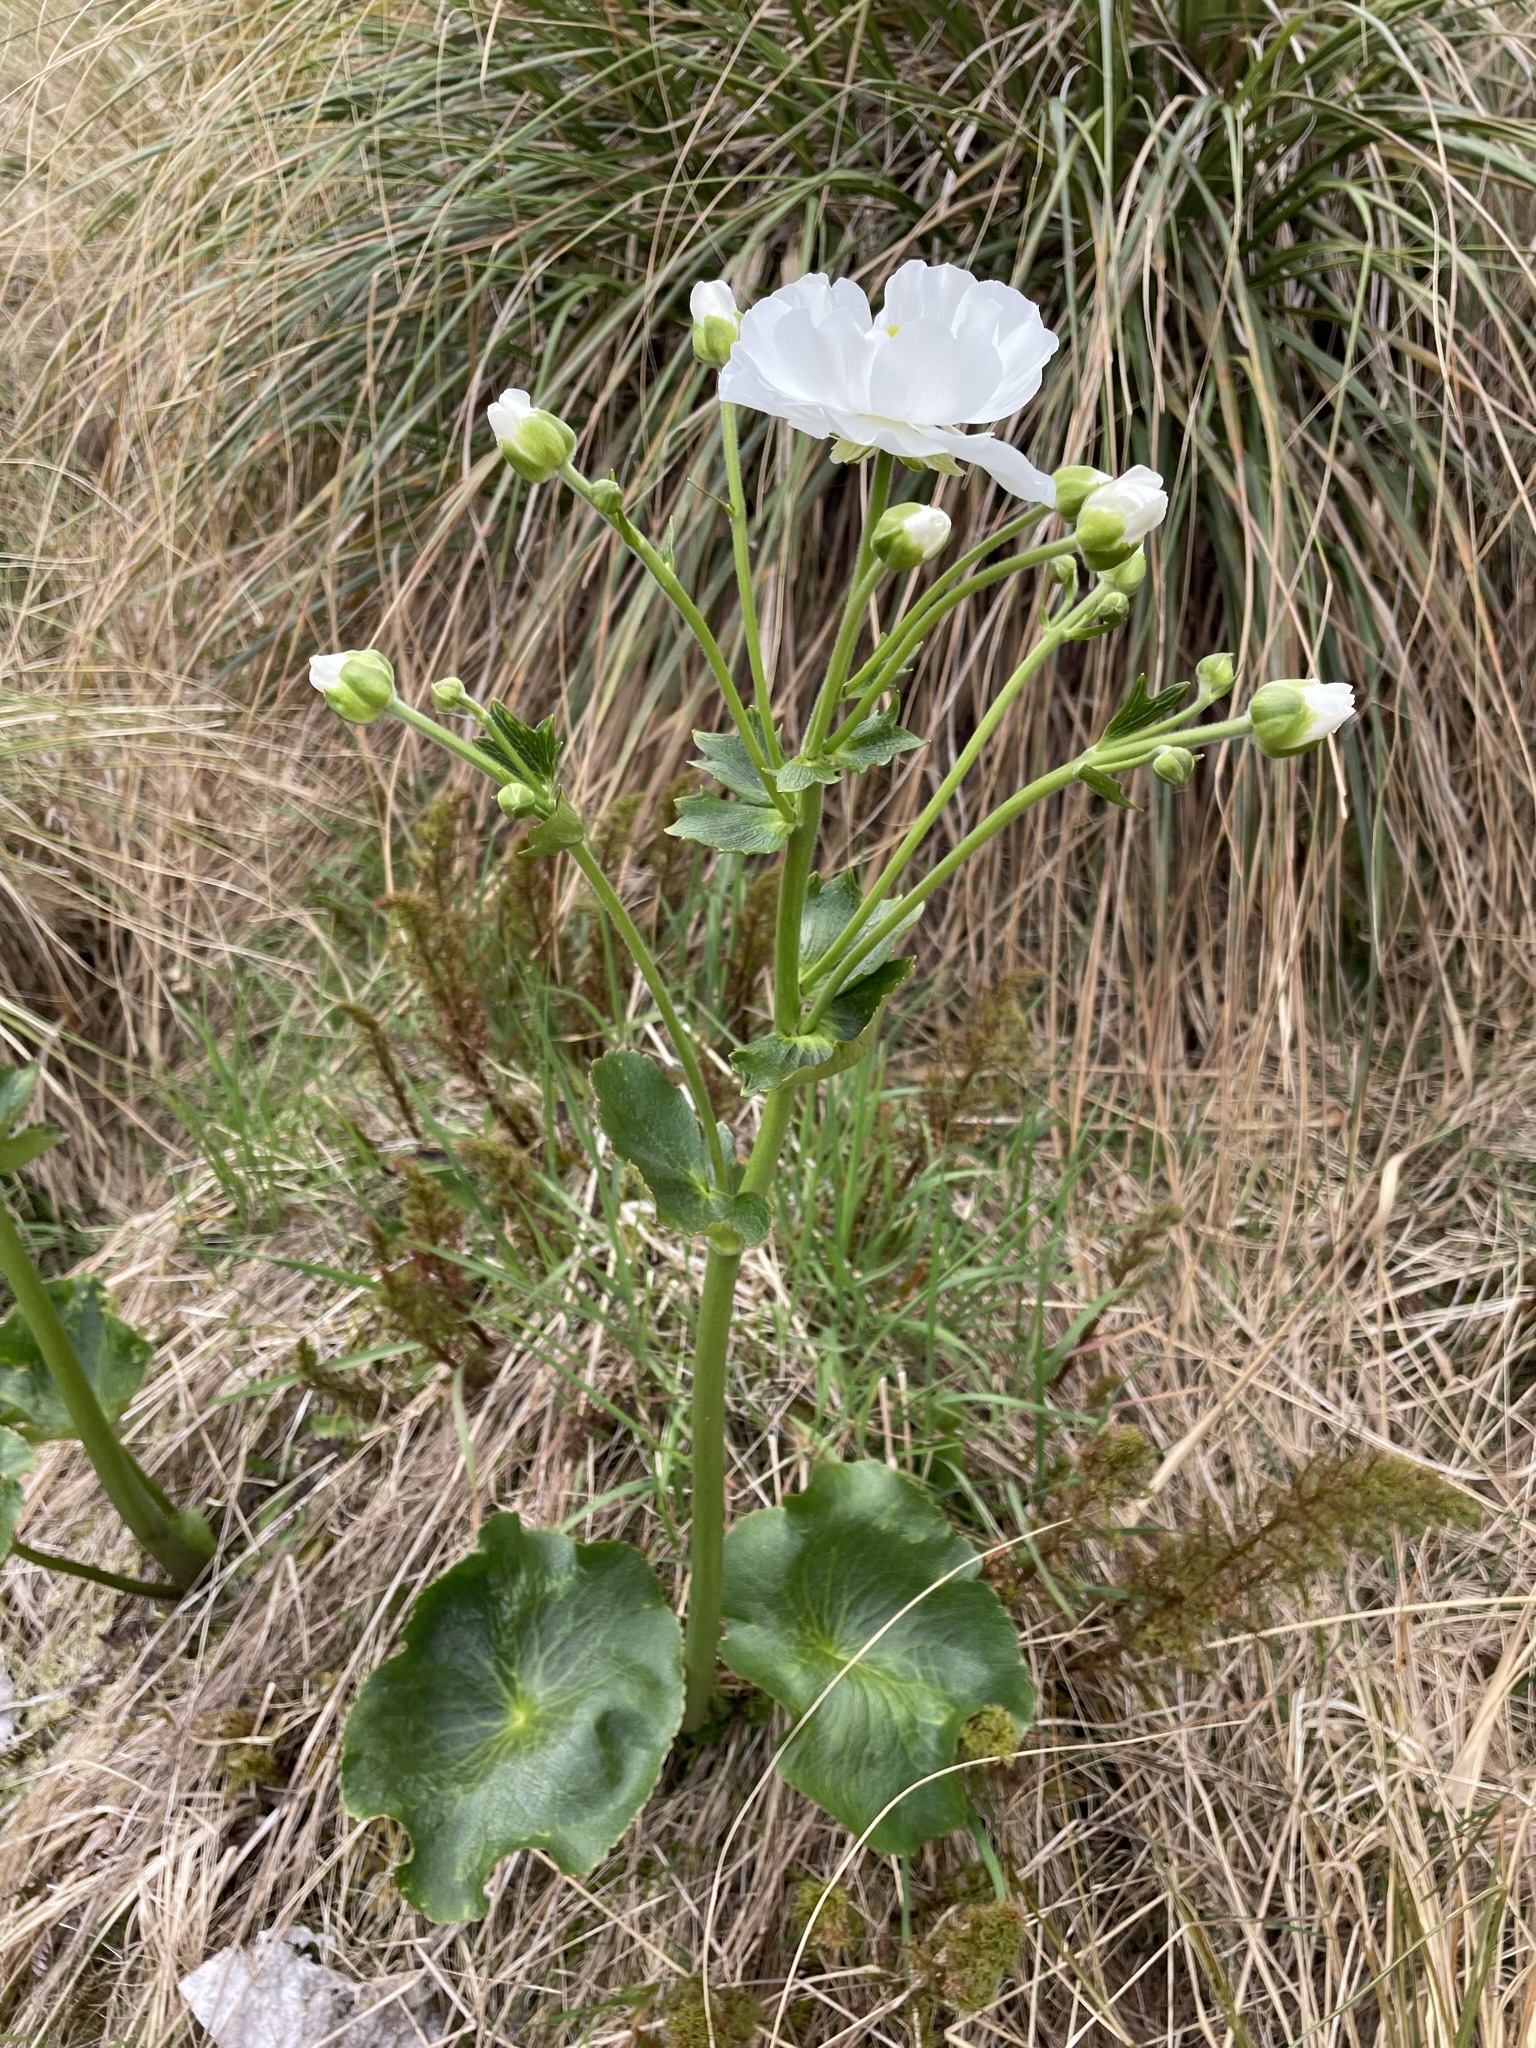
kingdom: Plantae
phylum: Tracheophyta
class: Magnoliopsida
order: Ranunculales
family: Ranunculaceae
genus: Ranunculus
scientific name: Ranunculus lyallii
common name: Mountain-lily
